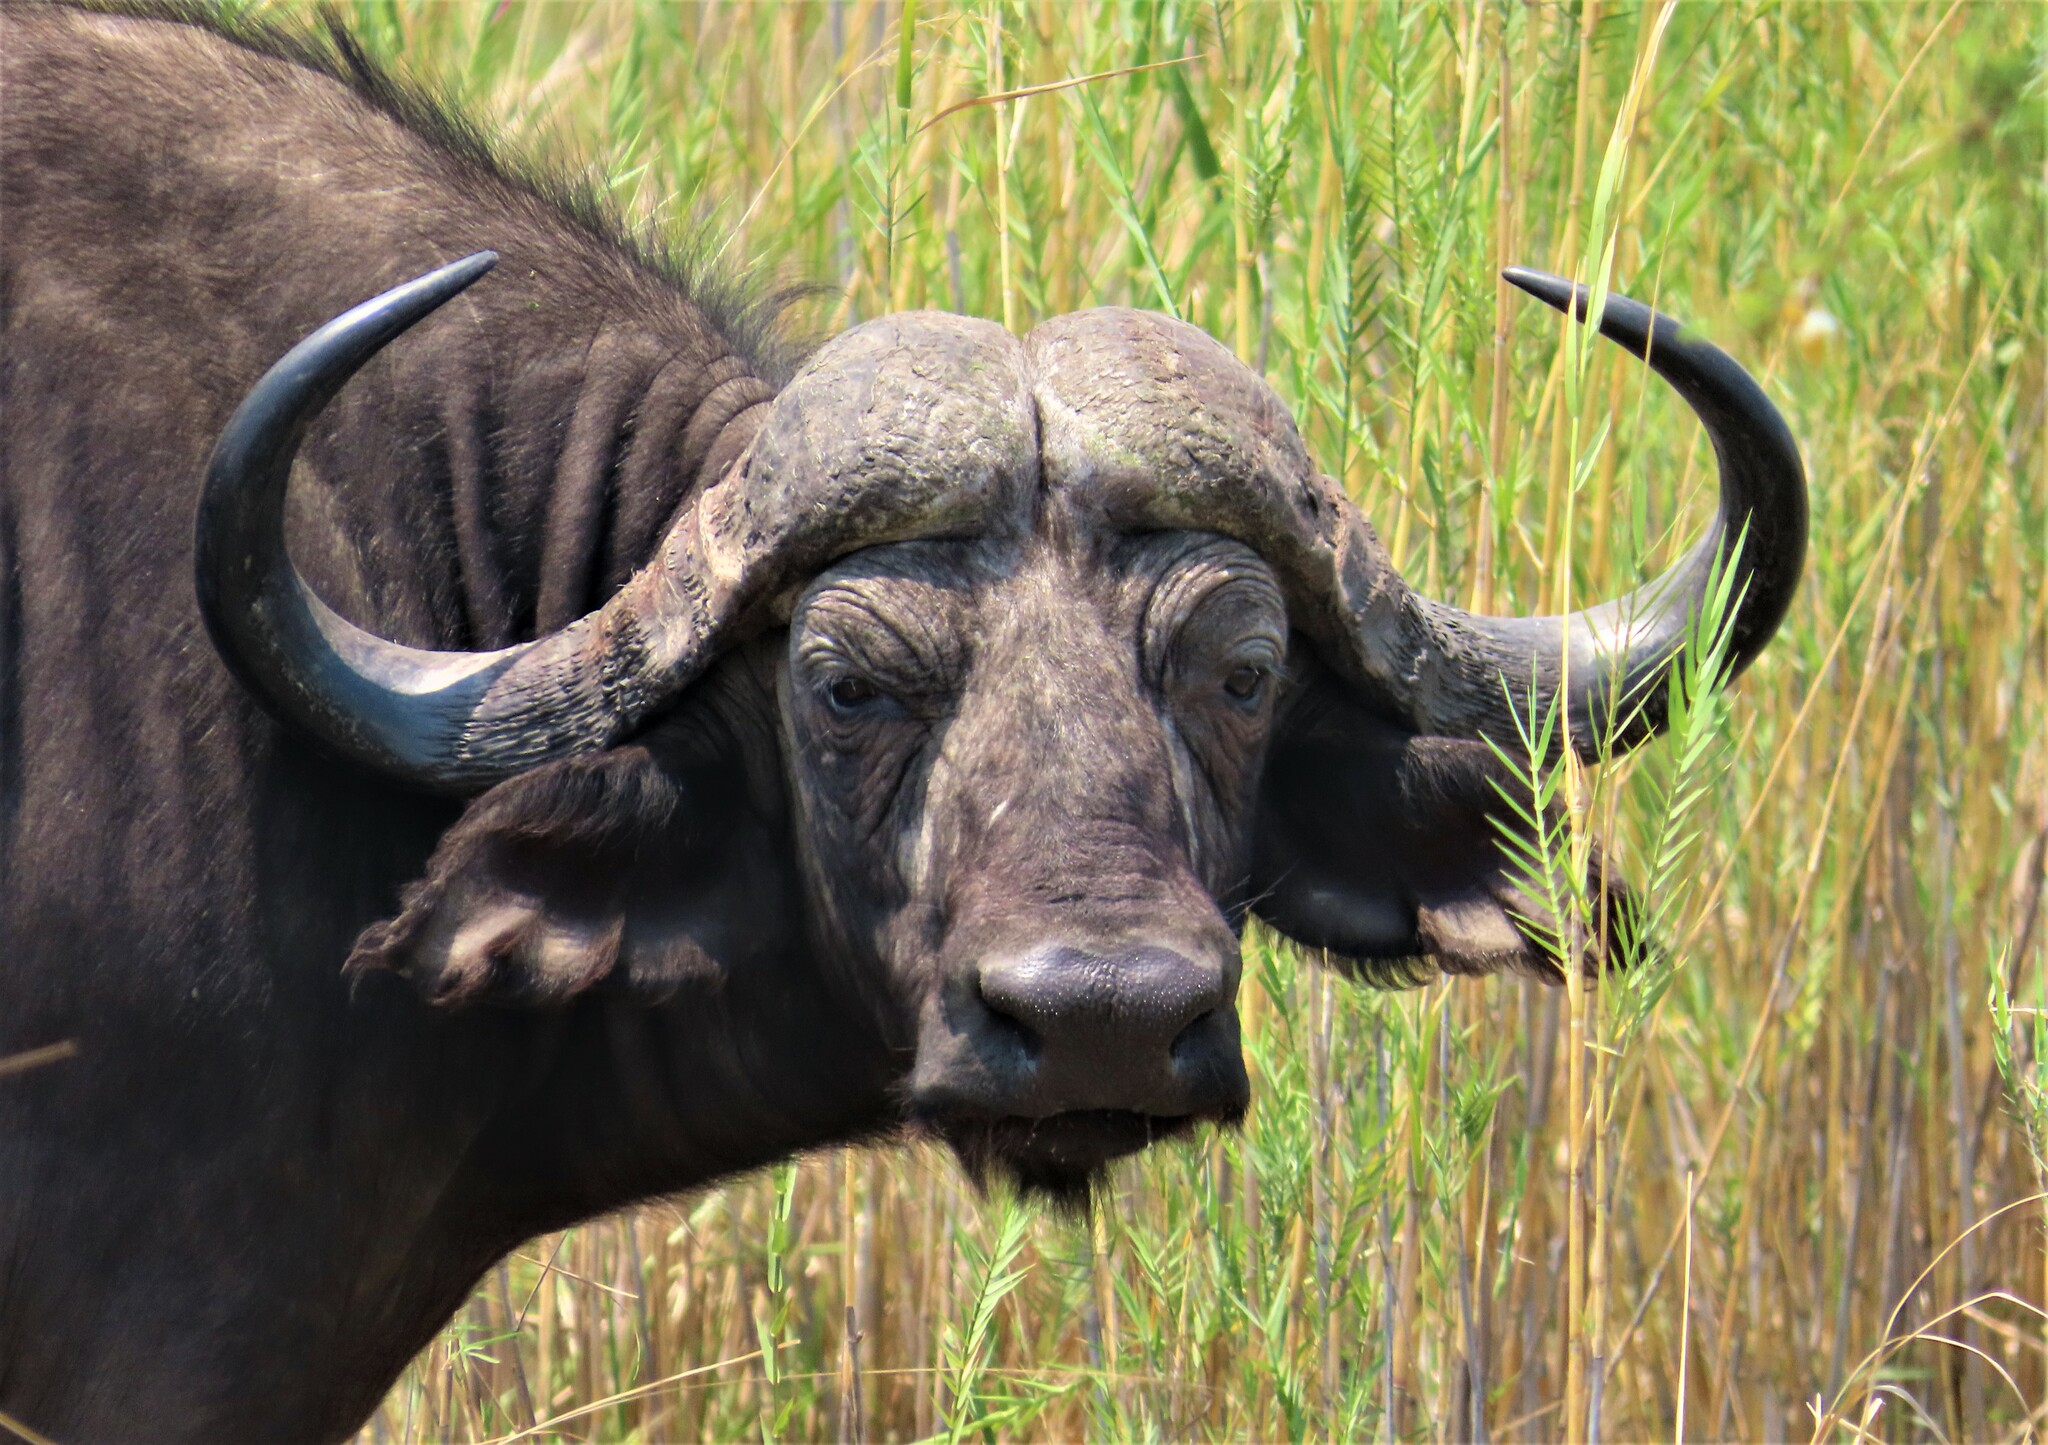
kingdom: Animalia
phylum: Chordata
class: Mammalia
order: Artiodactyla
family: Bovidae
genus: Syncerus
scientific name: Syncerus caffer
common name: African buffalo
